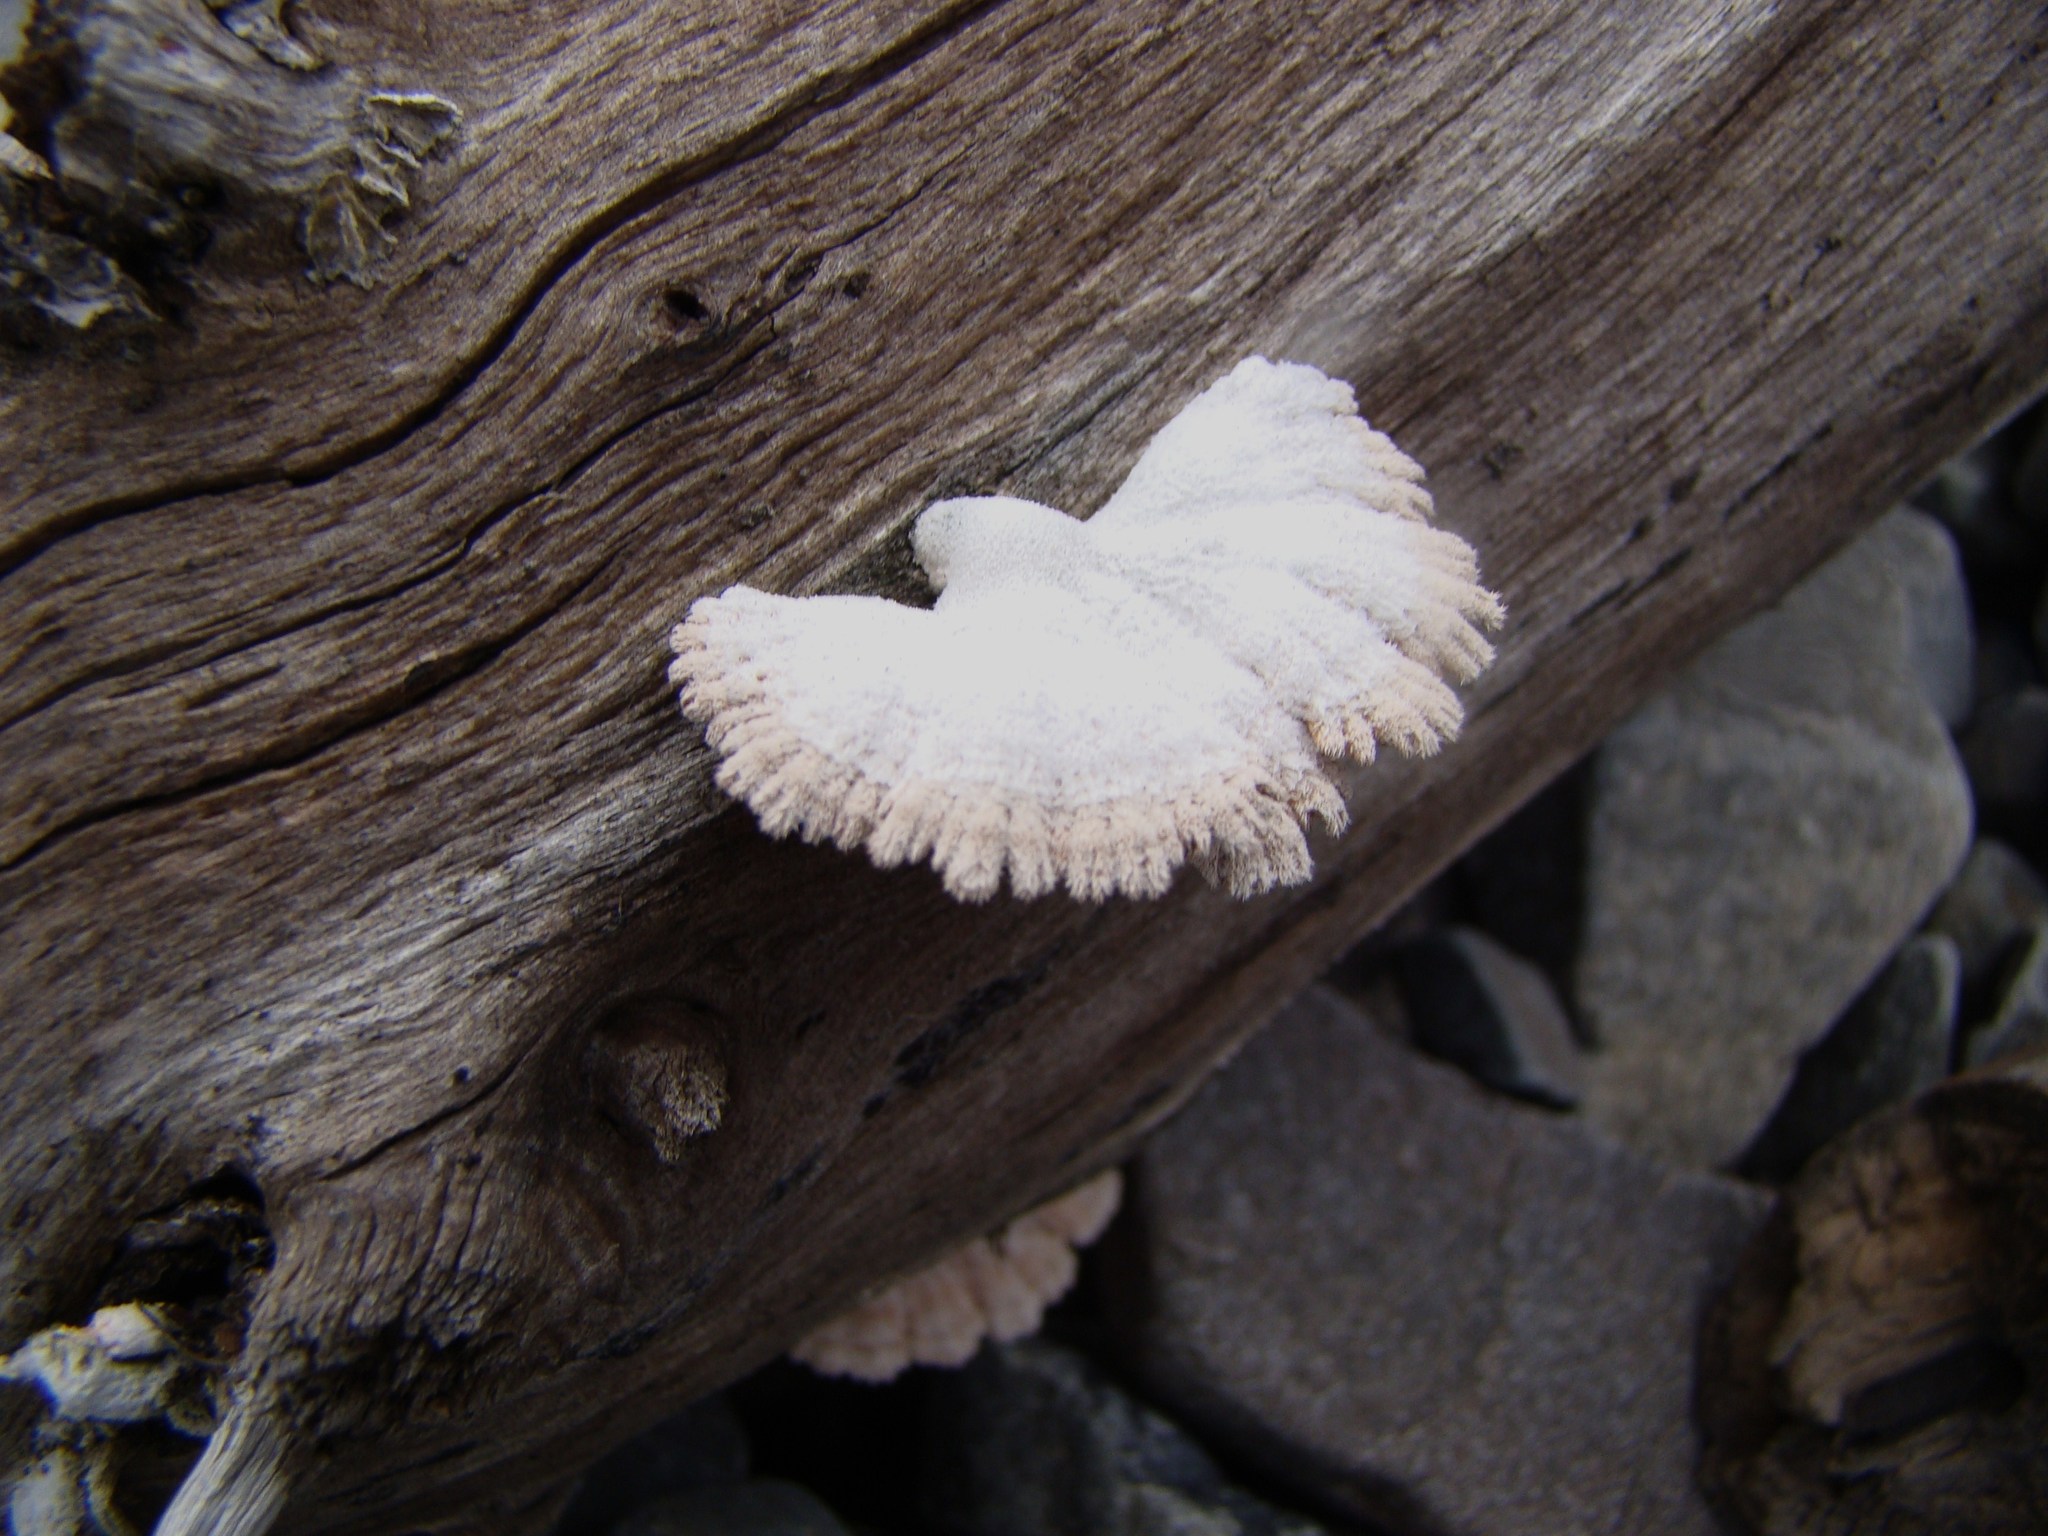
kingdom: Fungi
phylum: Basidiomycota
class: Agaricomycetes
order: Agaricales
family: Schizophyllaceae
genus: Schizophyllum
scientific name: Schizophyllum commune
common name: Common porecrust
